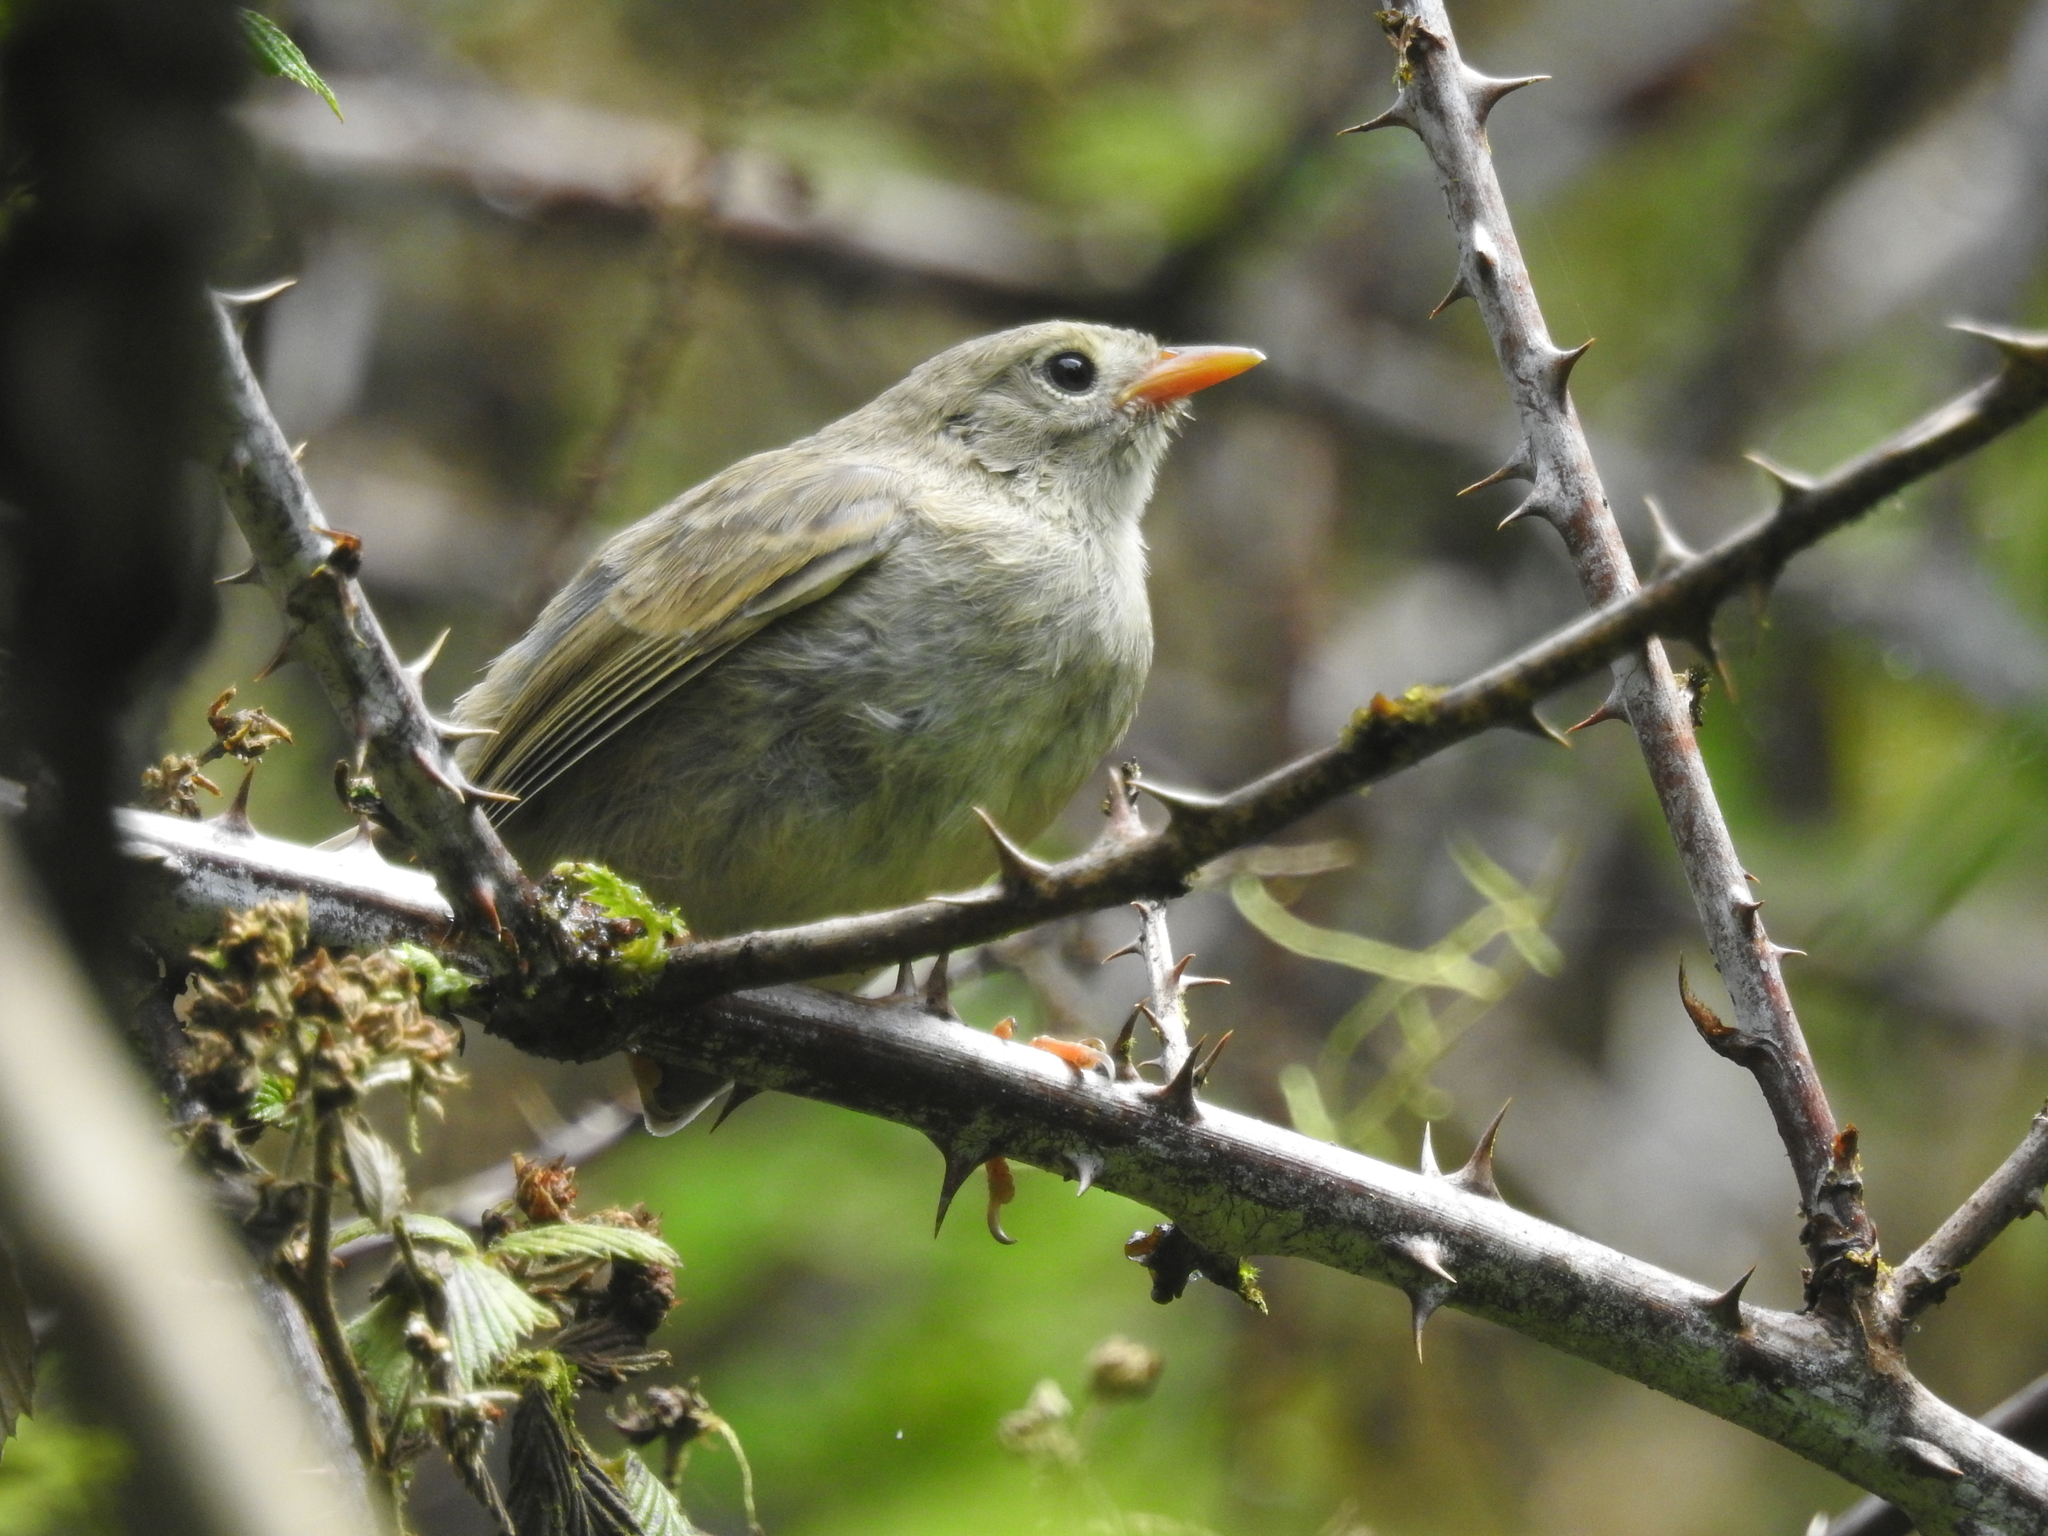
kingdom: Animalia
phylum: Chordata
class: Aves
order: Passeriformes
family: Thraupidae
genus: Certhidea
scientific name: Certhidea olivacea
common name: Green warbler-finch
